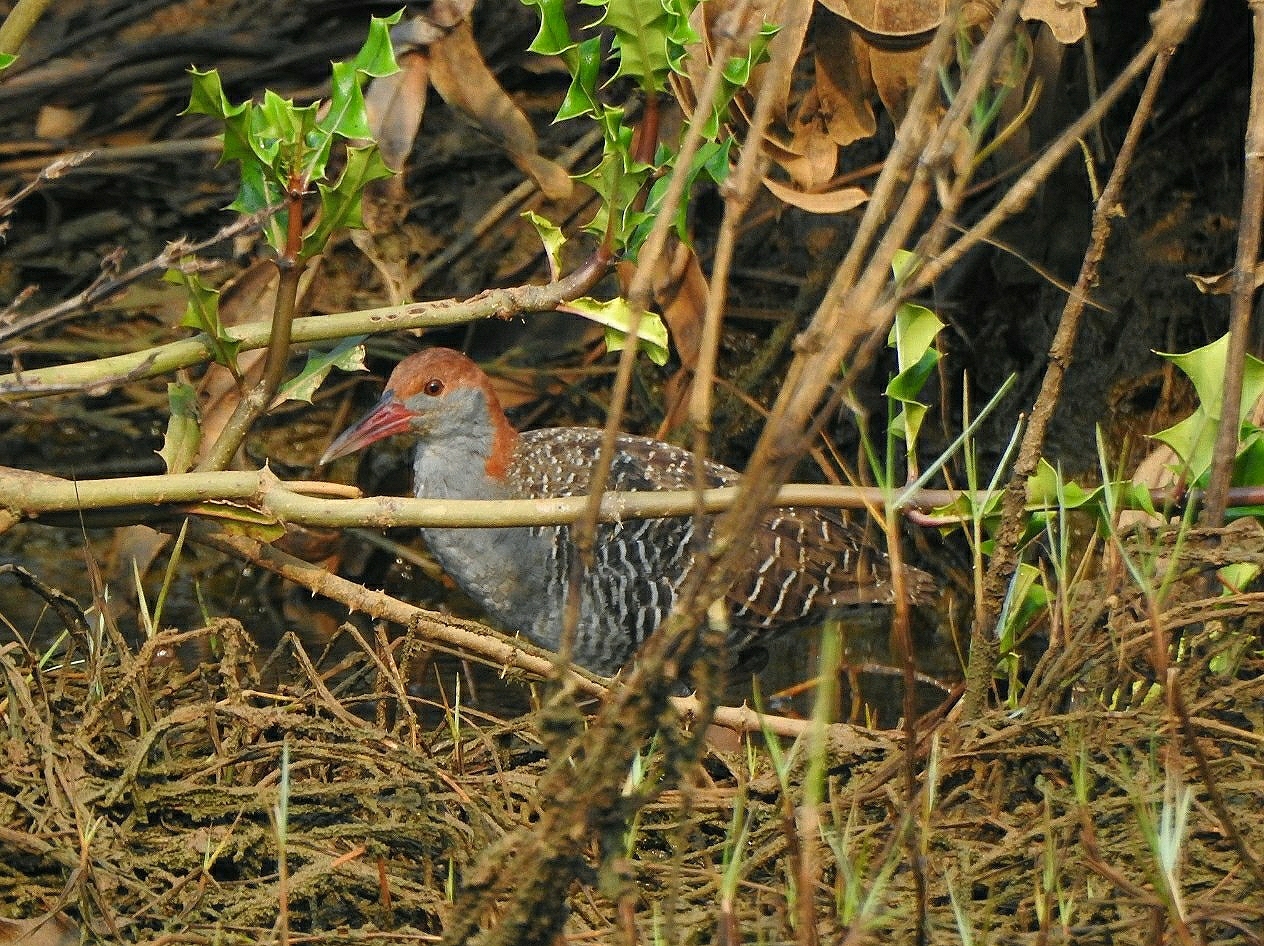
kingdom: Animalia
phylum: Chordata
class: Aves
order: Gruiformes
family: Rallidae
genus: Gallirallus
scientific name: Gallirallus striatus
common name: Slaty-breasted rail
